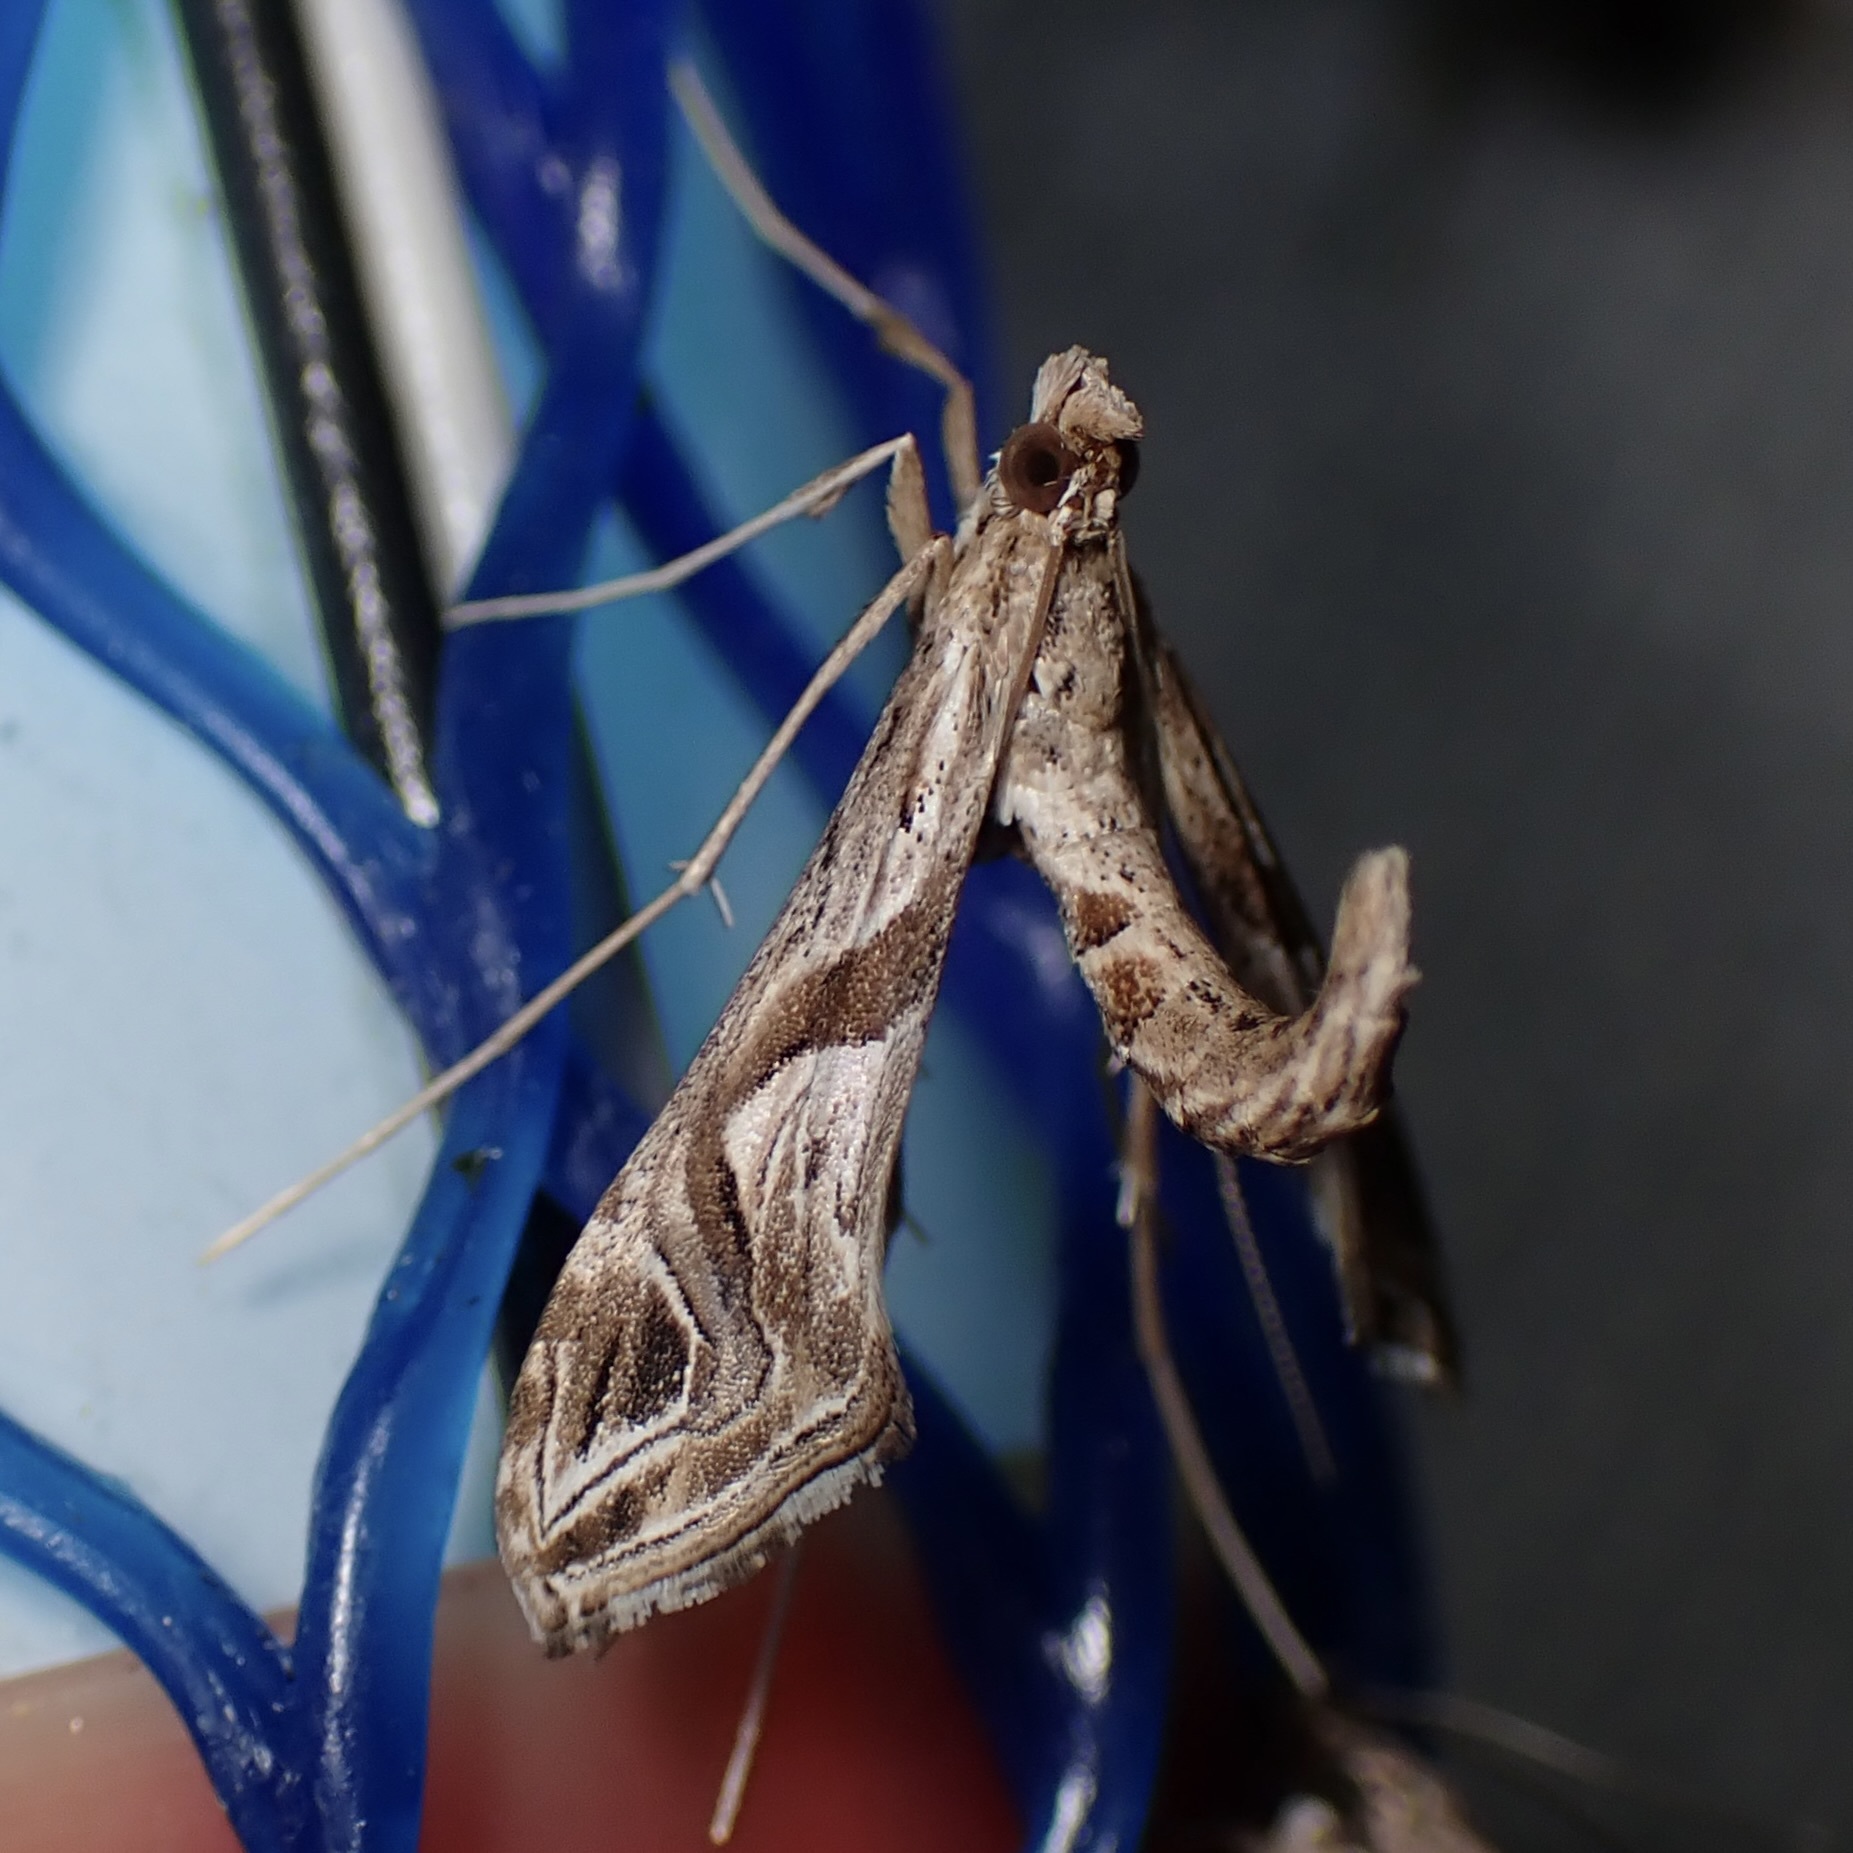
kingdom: Animalia
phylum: Arthropoda
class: Insecta
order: Lepidoptera
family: Crambidae
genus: Lineodes
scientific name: Lineodes integra
